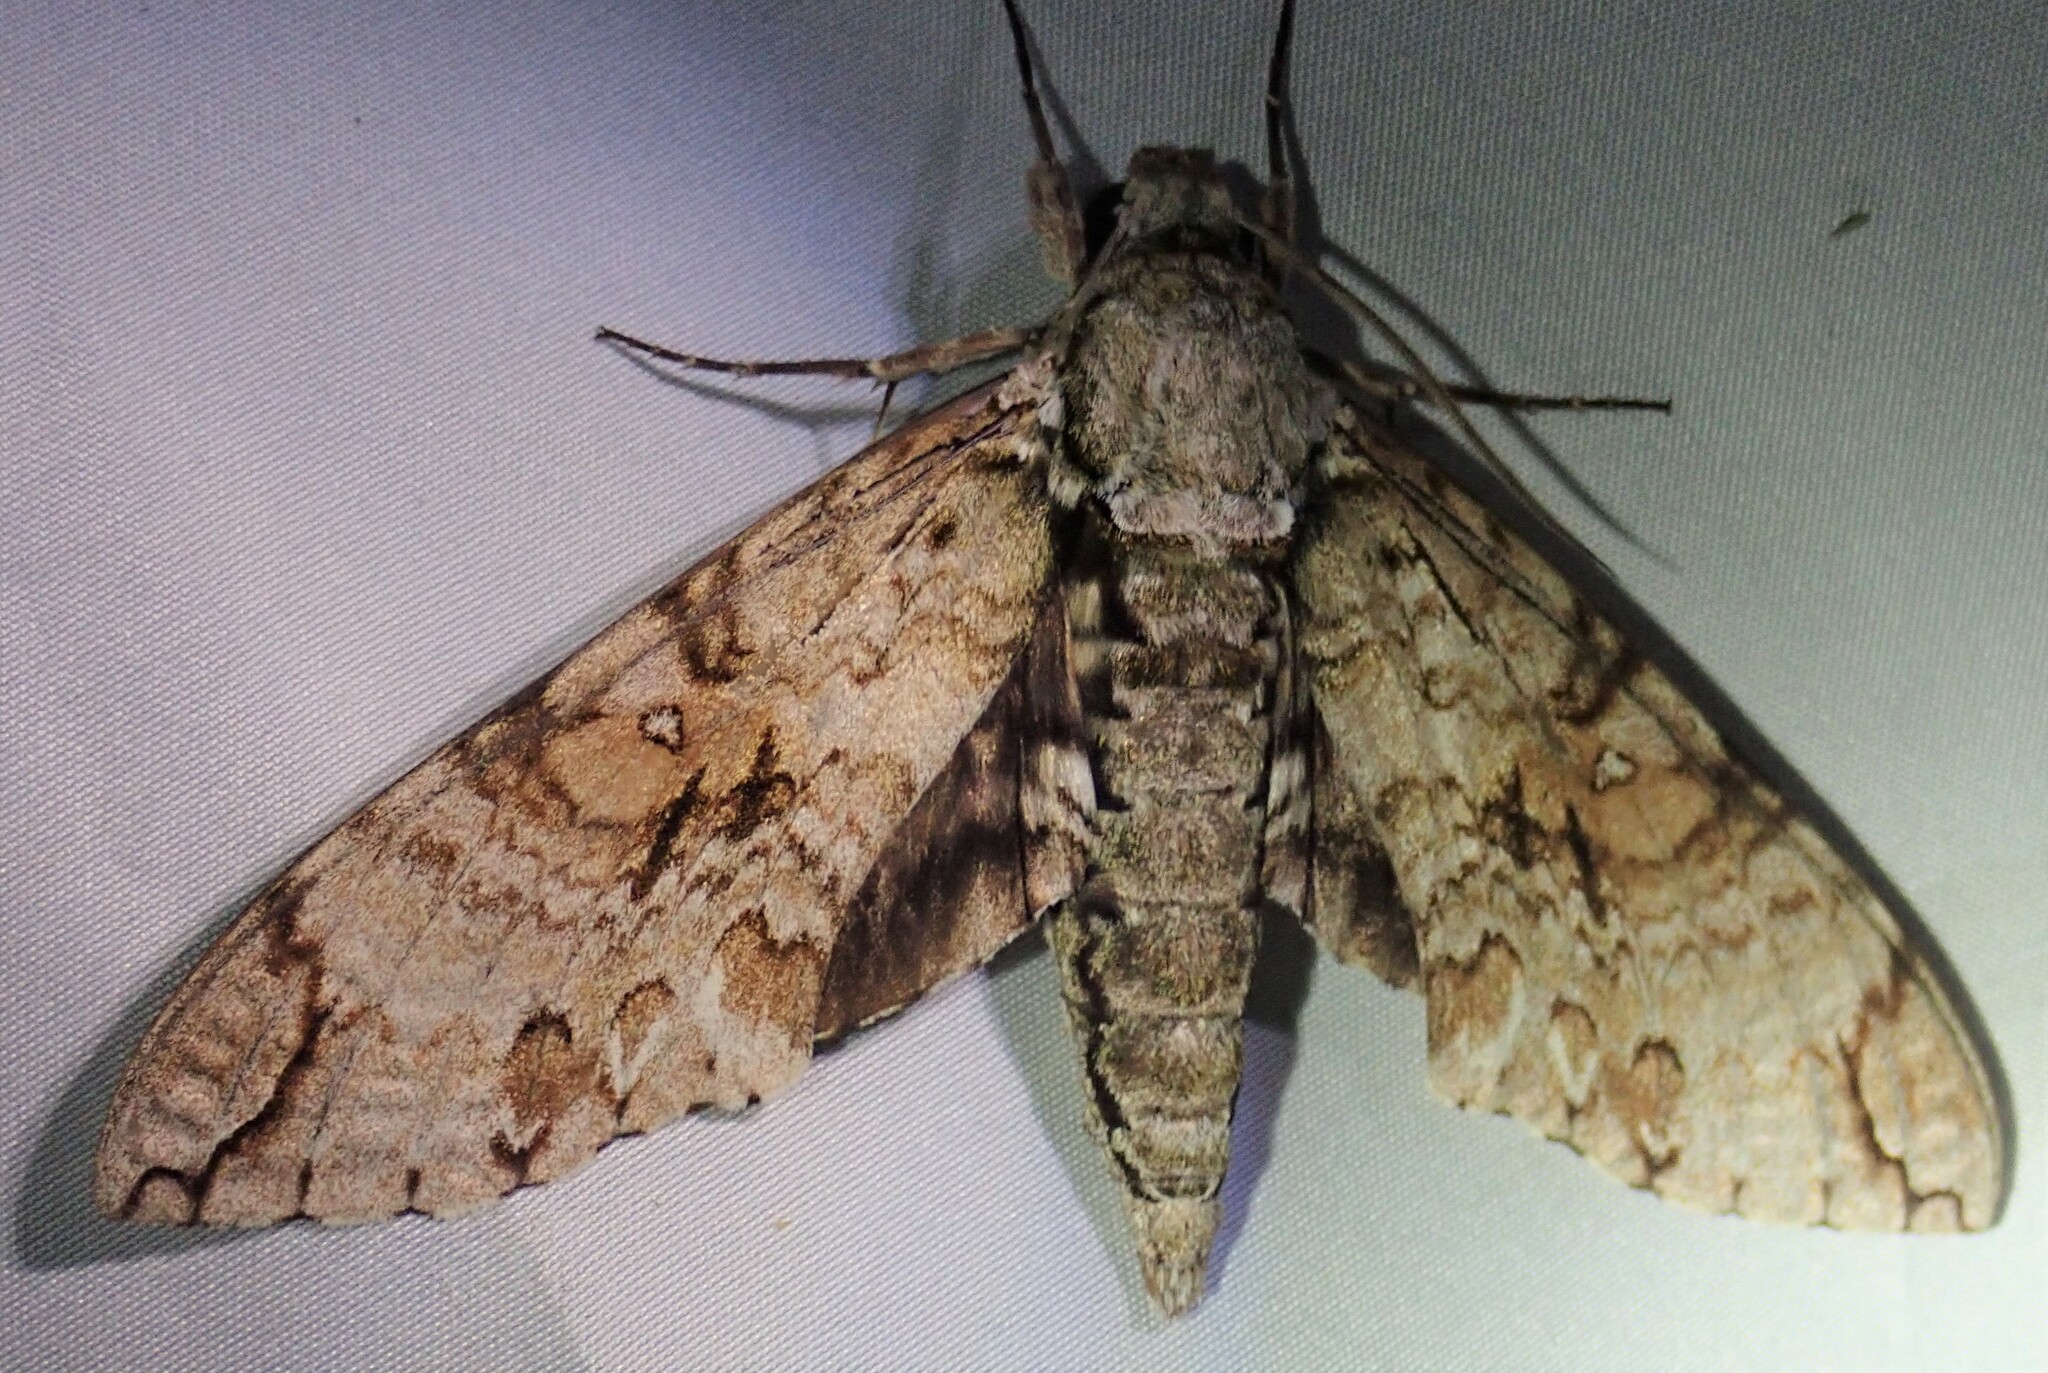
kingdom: Animalia
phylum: Arthropoda
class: Insecta
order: Lepidoptera
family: Sphingidae
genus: Manduca
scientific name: Manduca florestan
